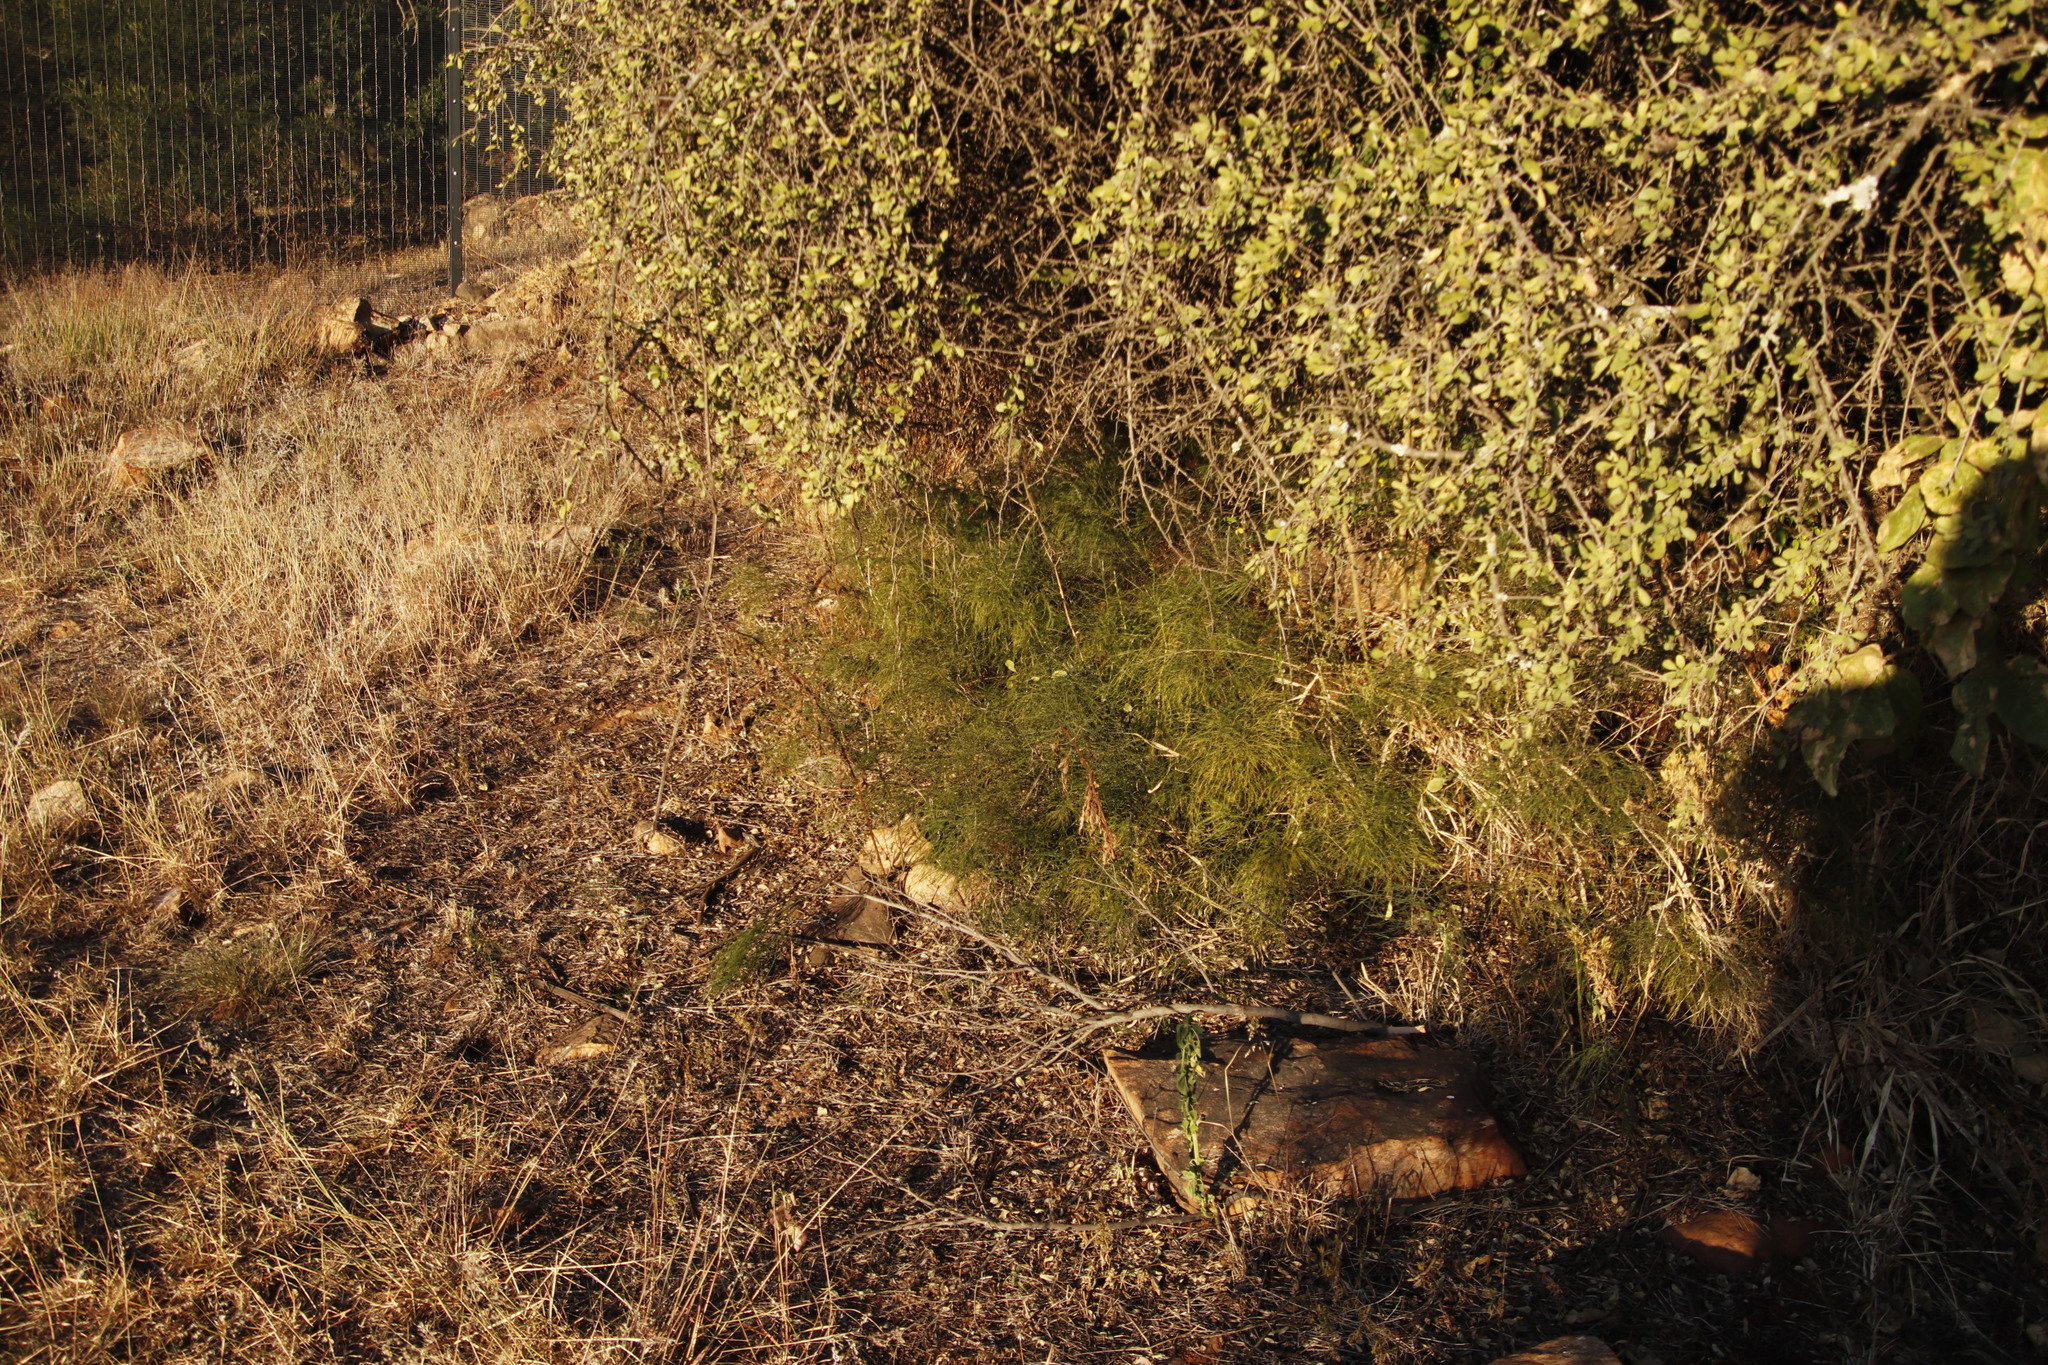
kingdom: Plantae
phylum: Tracheophyta
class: Liliopsida
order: Asparagales
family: Asparagaceae
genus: Asparagus
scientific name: Asparagus virgatus
